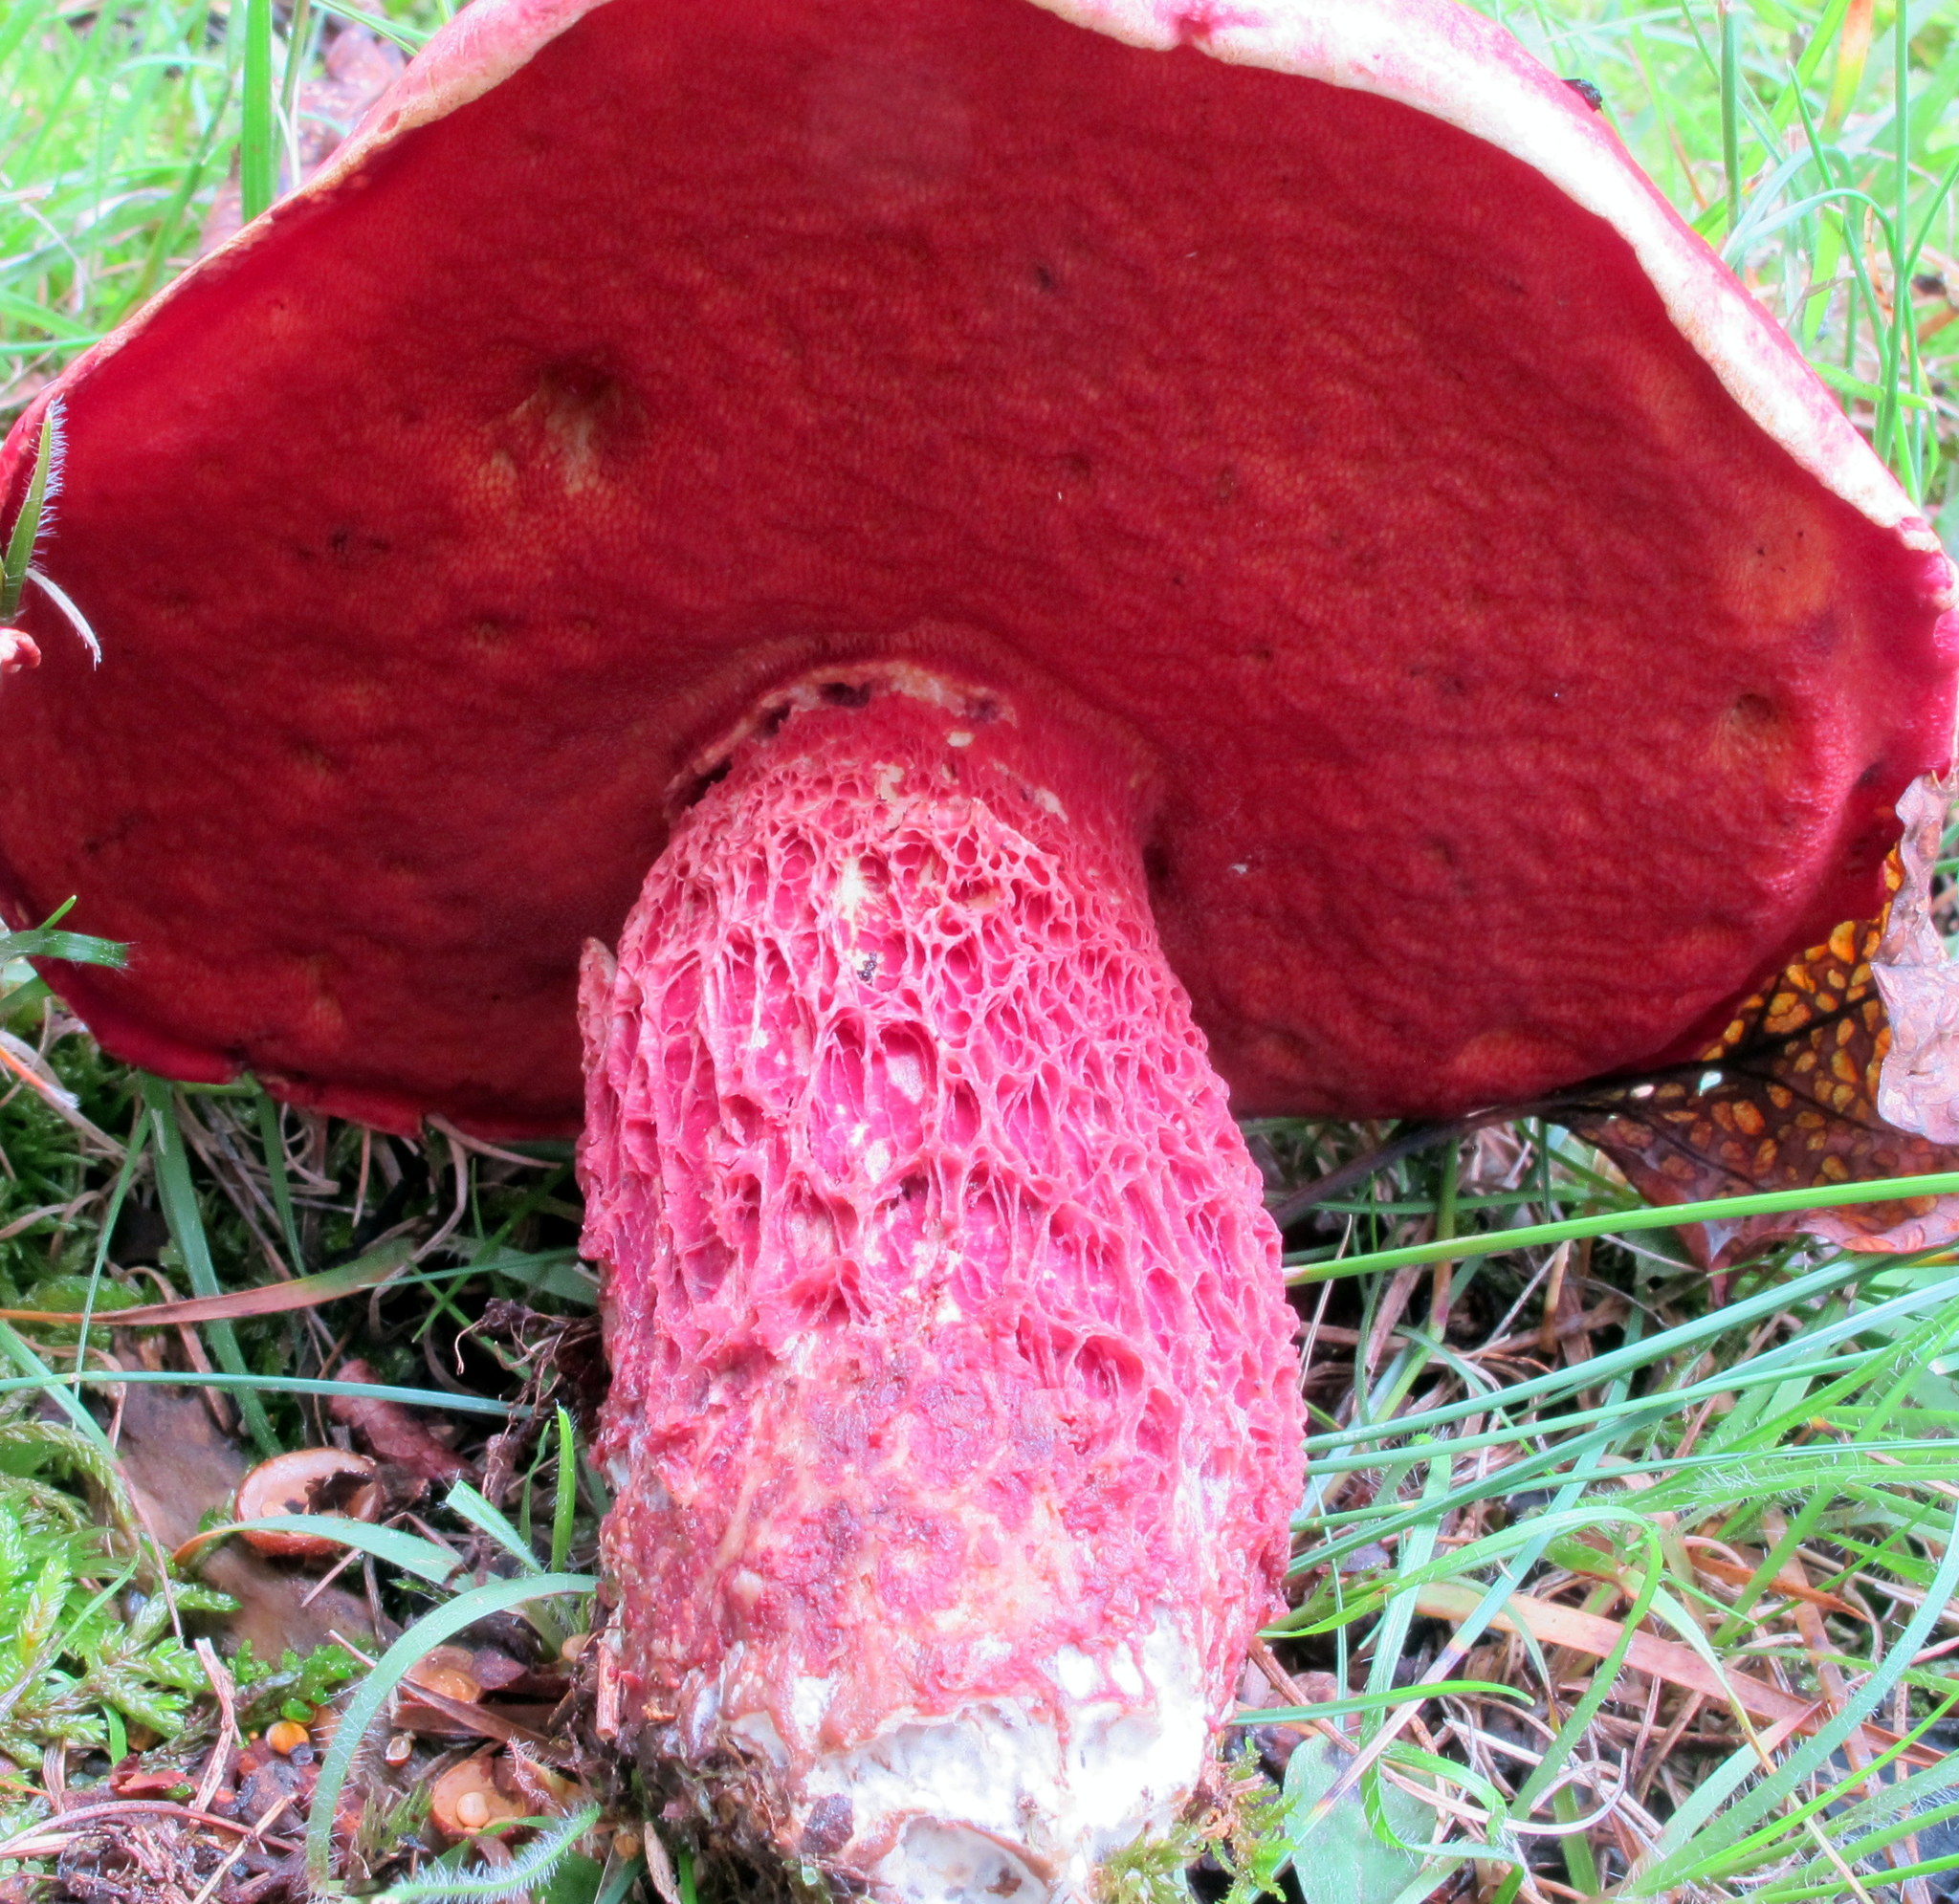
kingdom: Fungi
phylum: Basidiomycota
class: Agaricomycetes
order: Boletales
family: Boletaceae
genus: Butyriboletus
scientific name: Butyriboletus frostii
